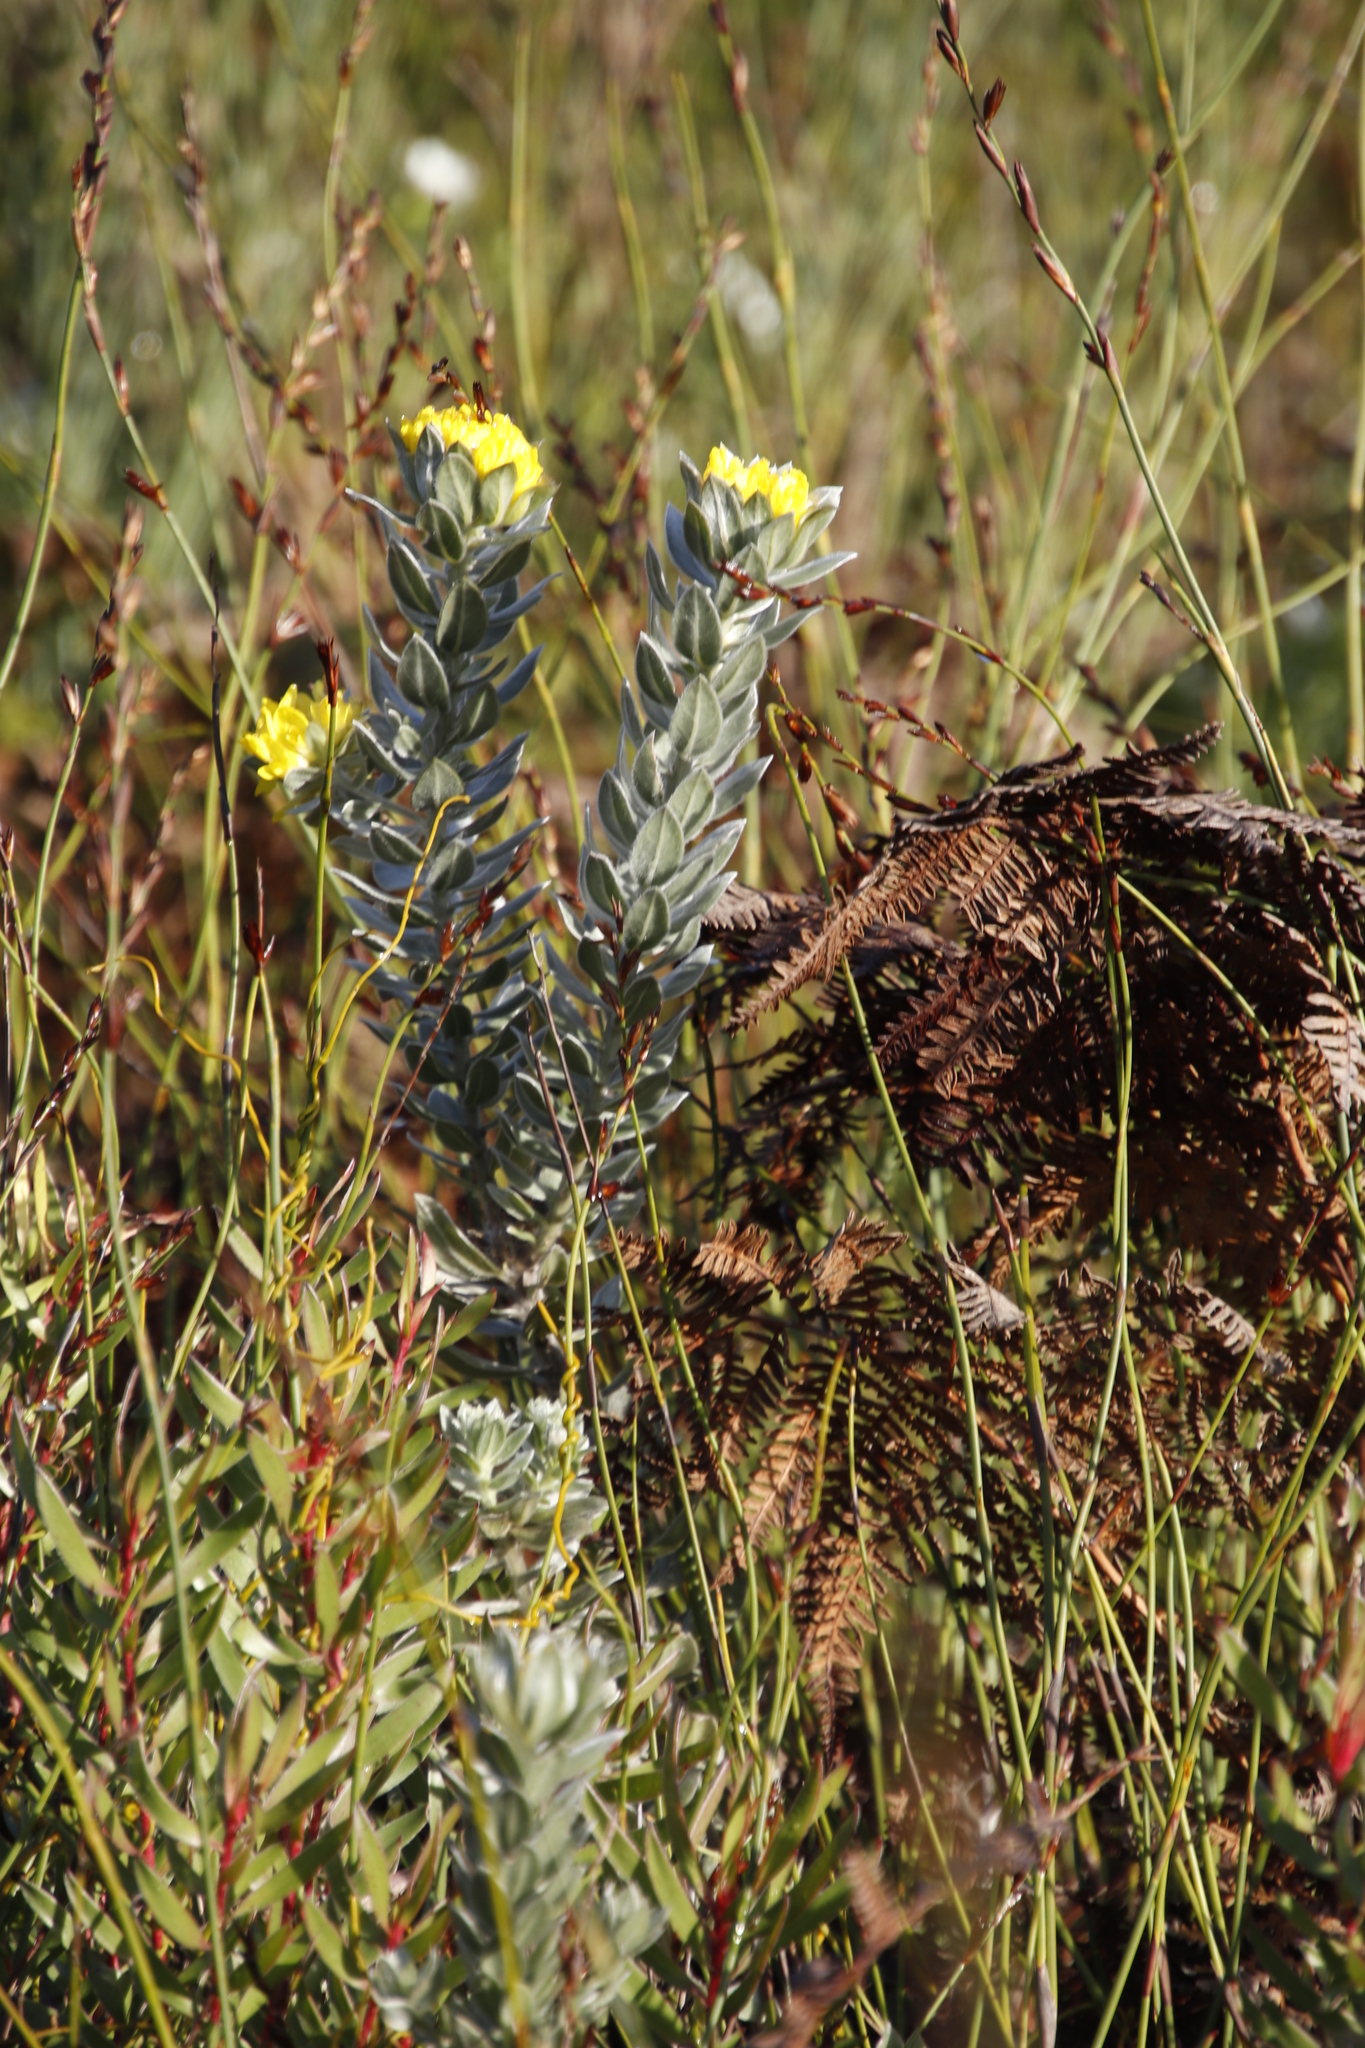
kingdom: Plantae
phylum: Tracheophyta
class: Magnoliopsida
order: Fabales
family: Fabaceae
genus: Xiphotheca
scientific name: Xiphotheca fruticosa
